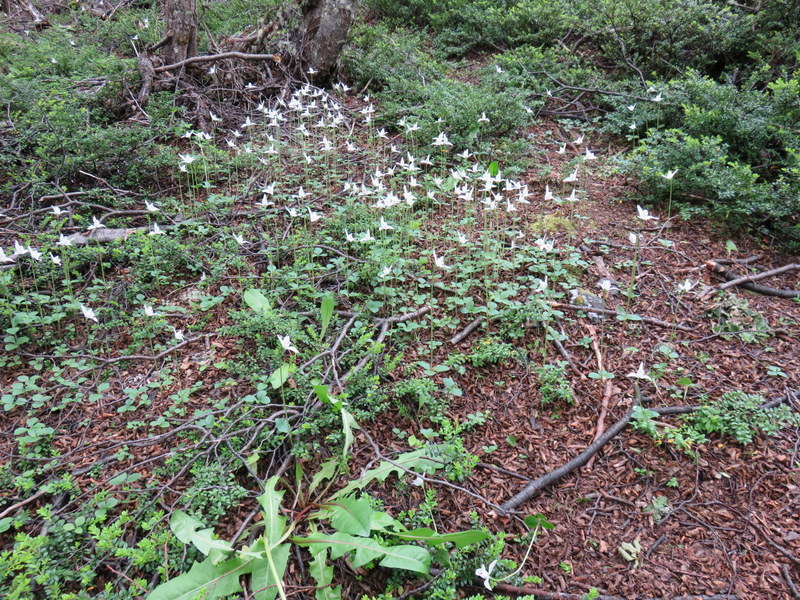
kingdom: Plantae
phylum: Tracheophyta
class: Liliopsida
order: Asparagales
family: Orchidaceae
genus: Codonorchis
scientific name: Codonorchis lessonii
